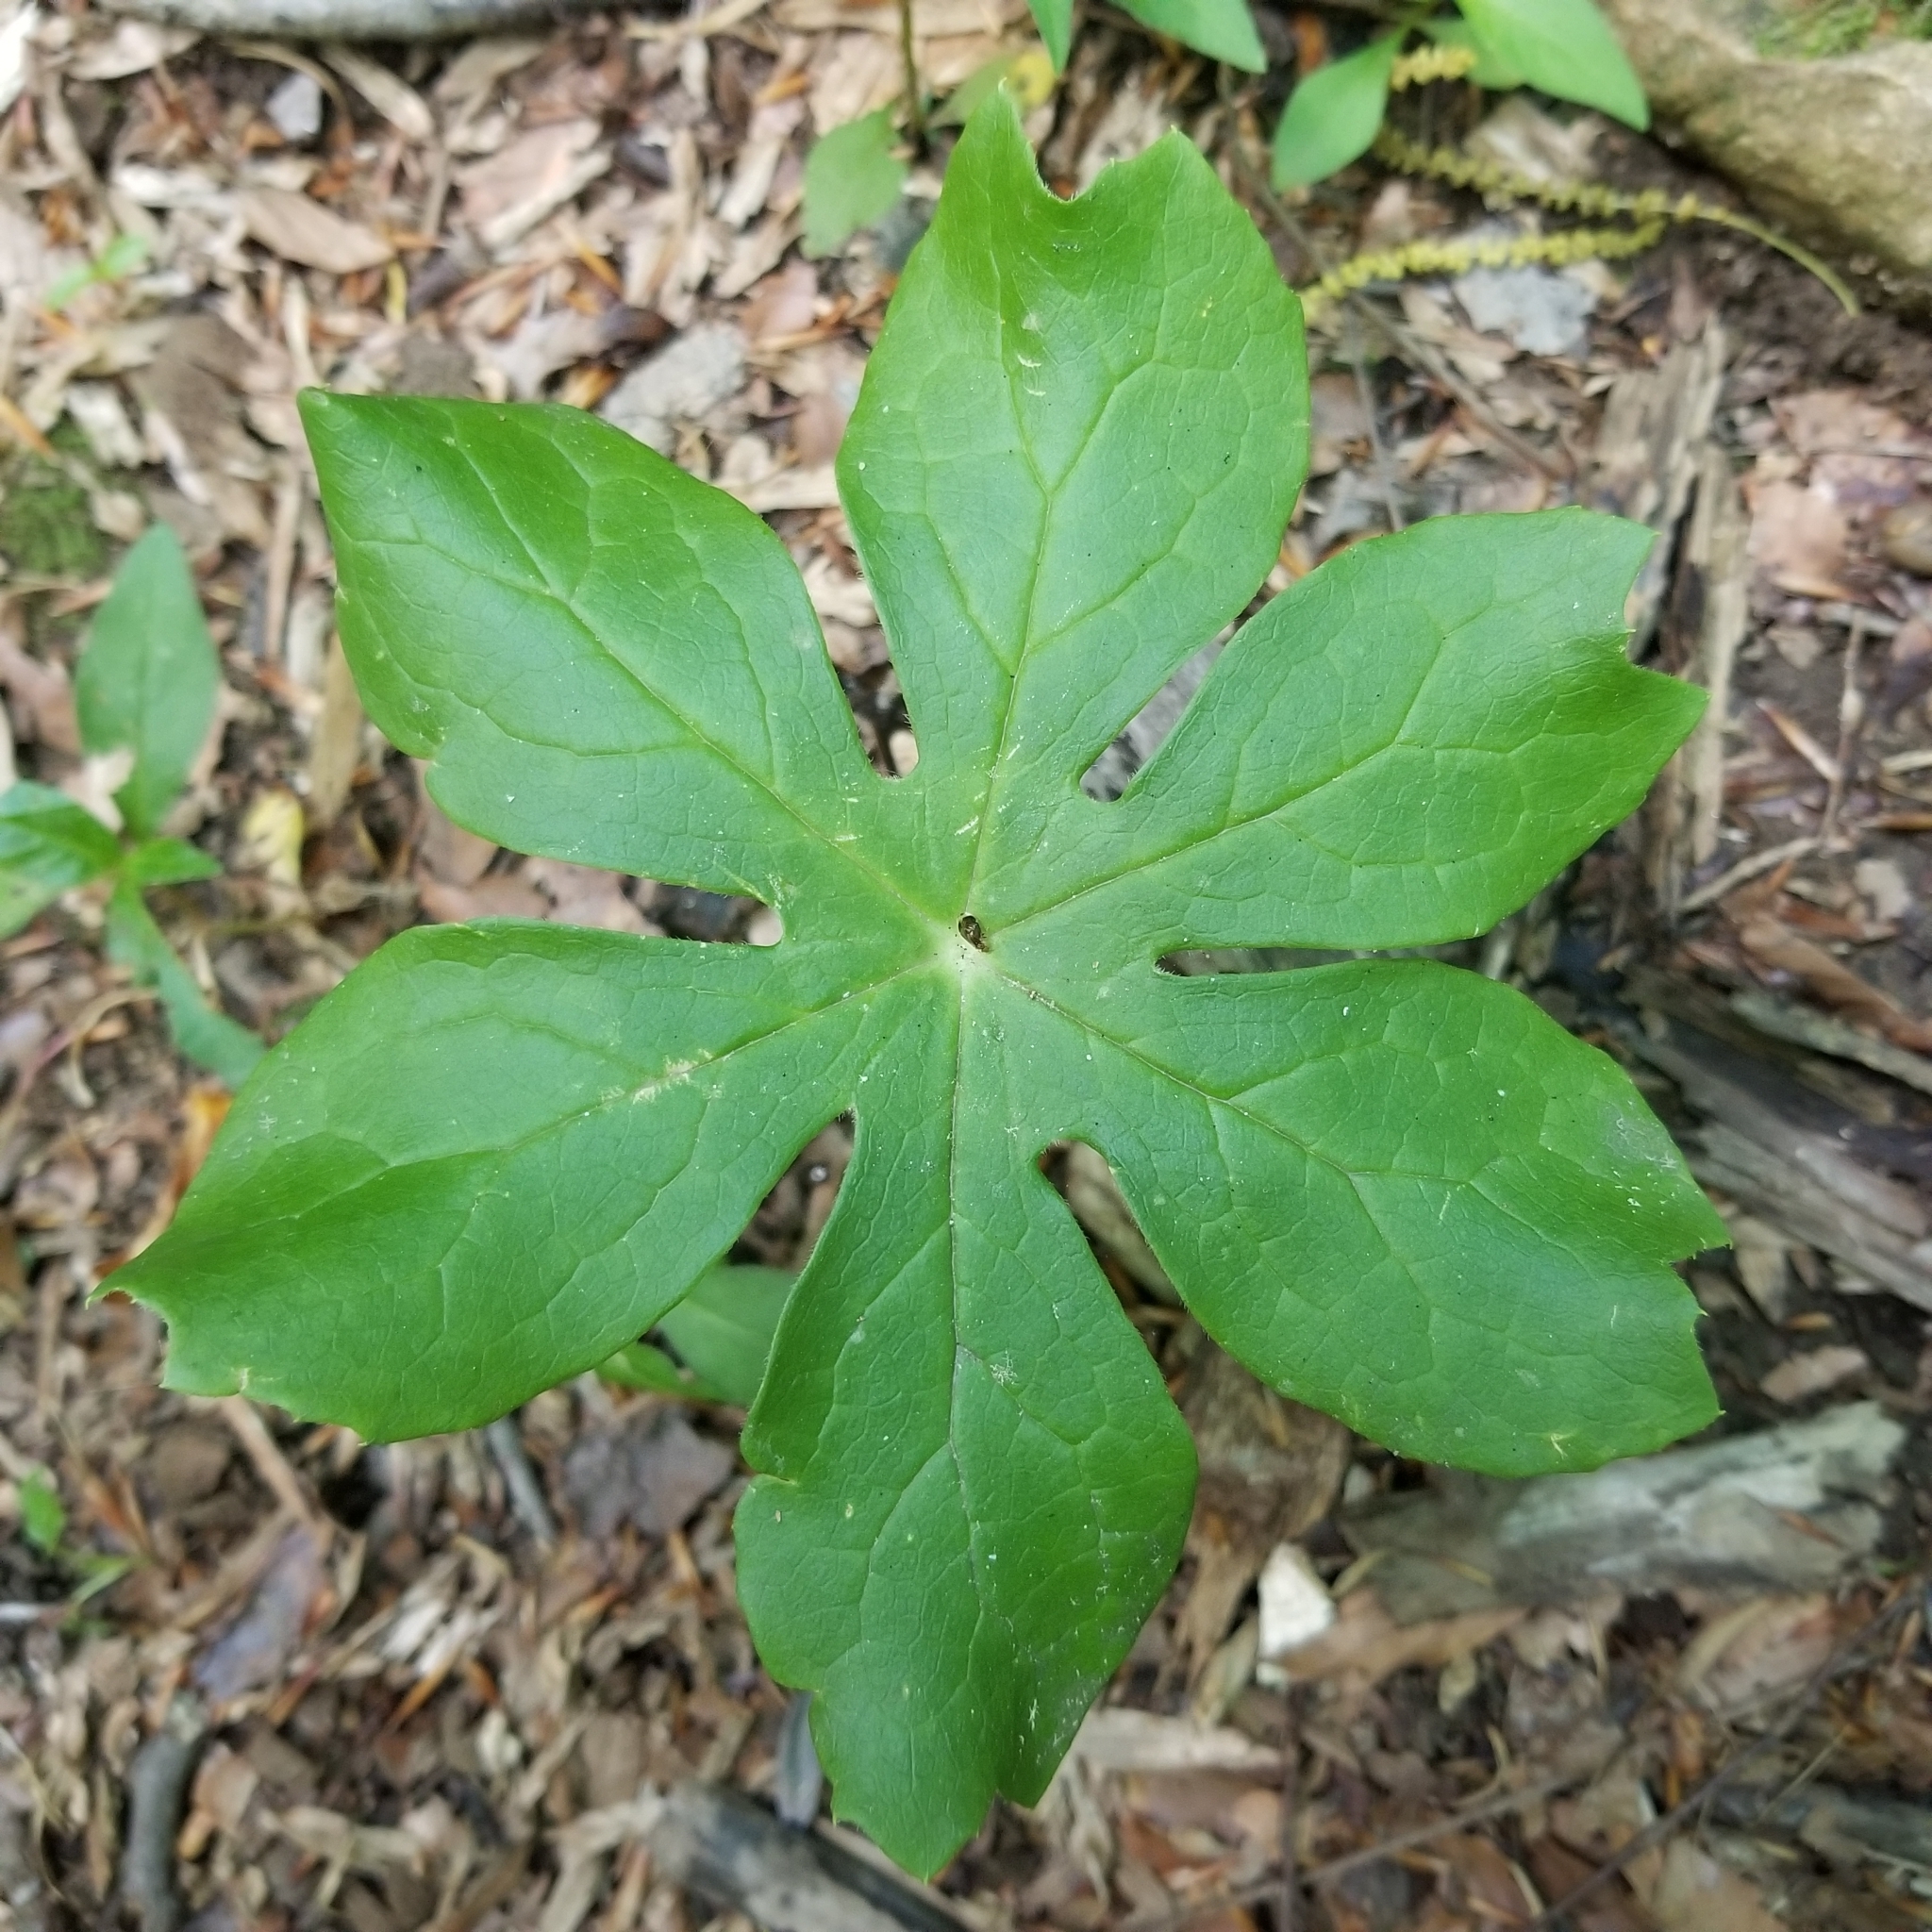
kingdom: Plantae
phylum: Tracheophyta
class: Magnoliopsida
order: Ranunculales
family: Berberidaceae
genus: Podophyllum
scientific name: Podophyllum peltatum
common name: Wild mandrake
